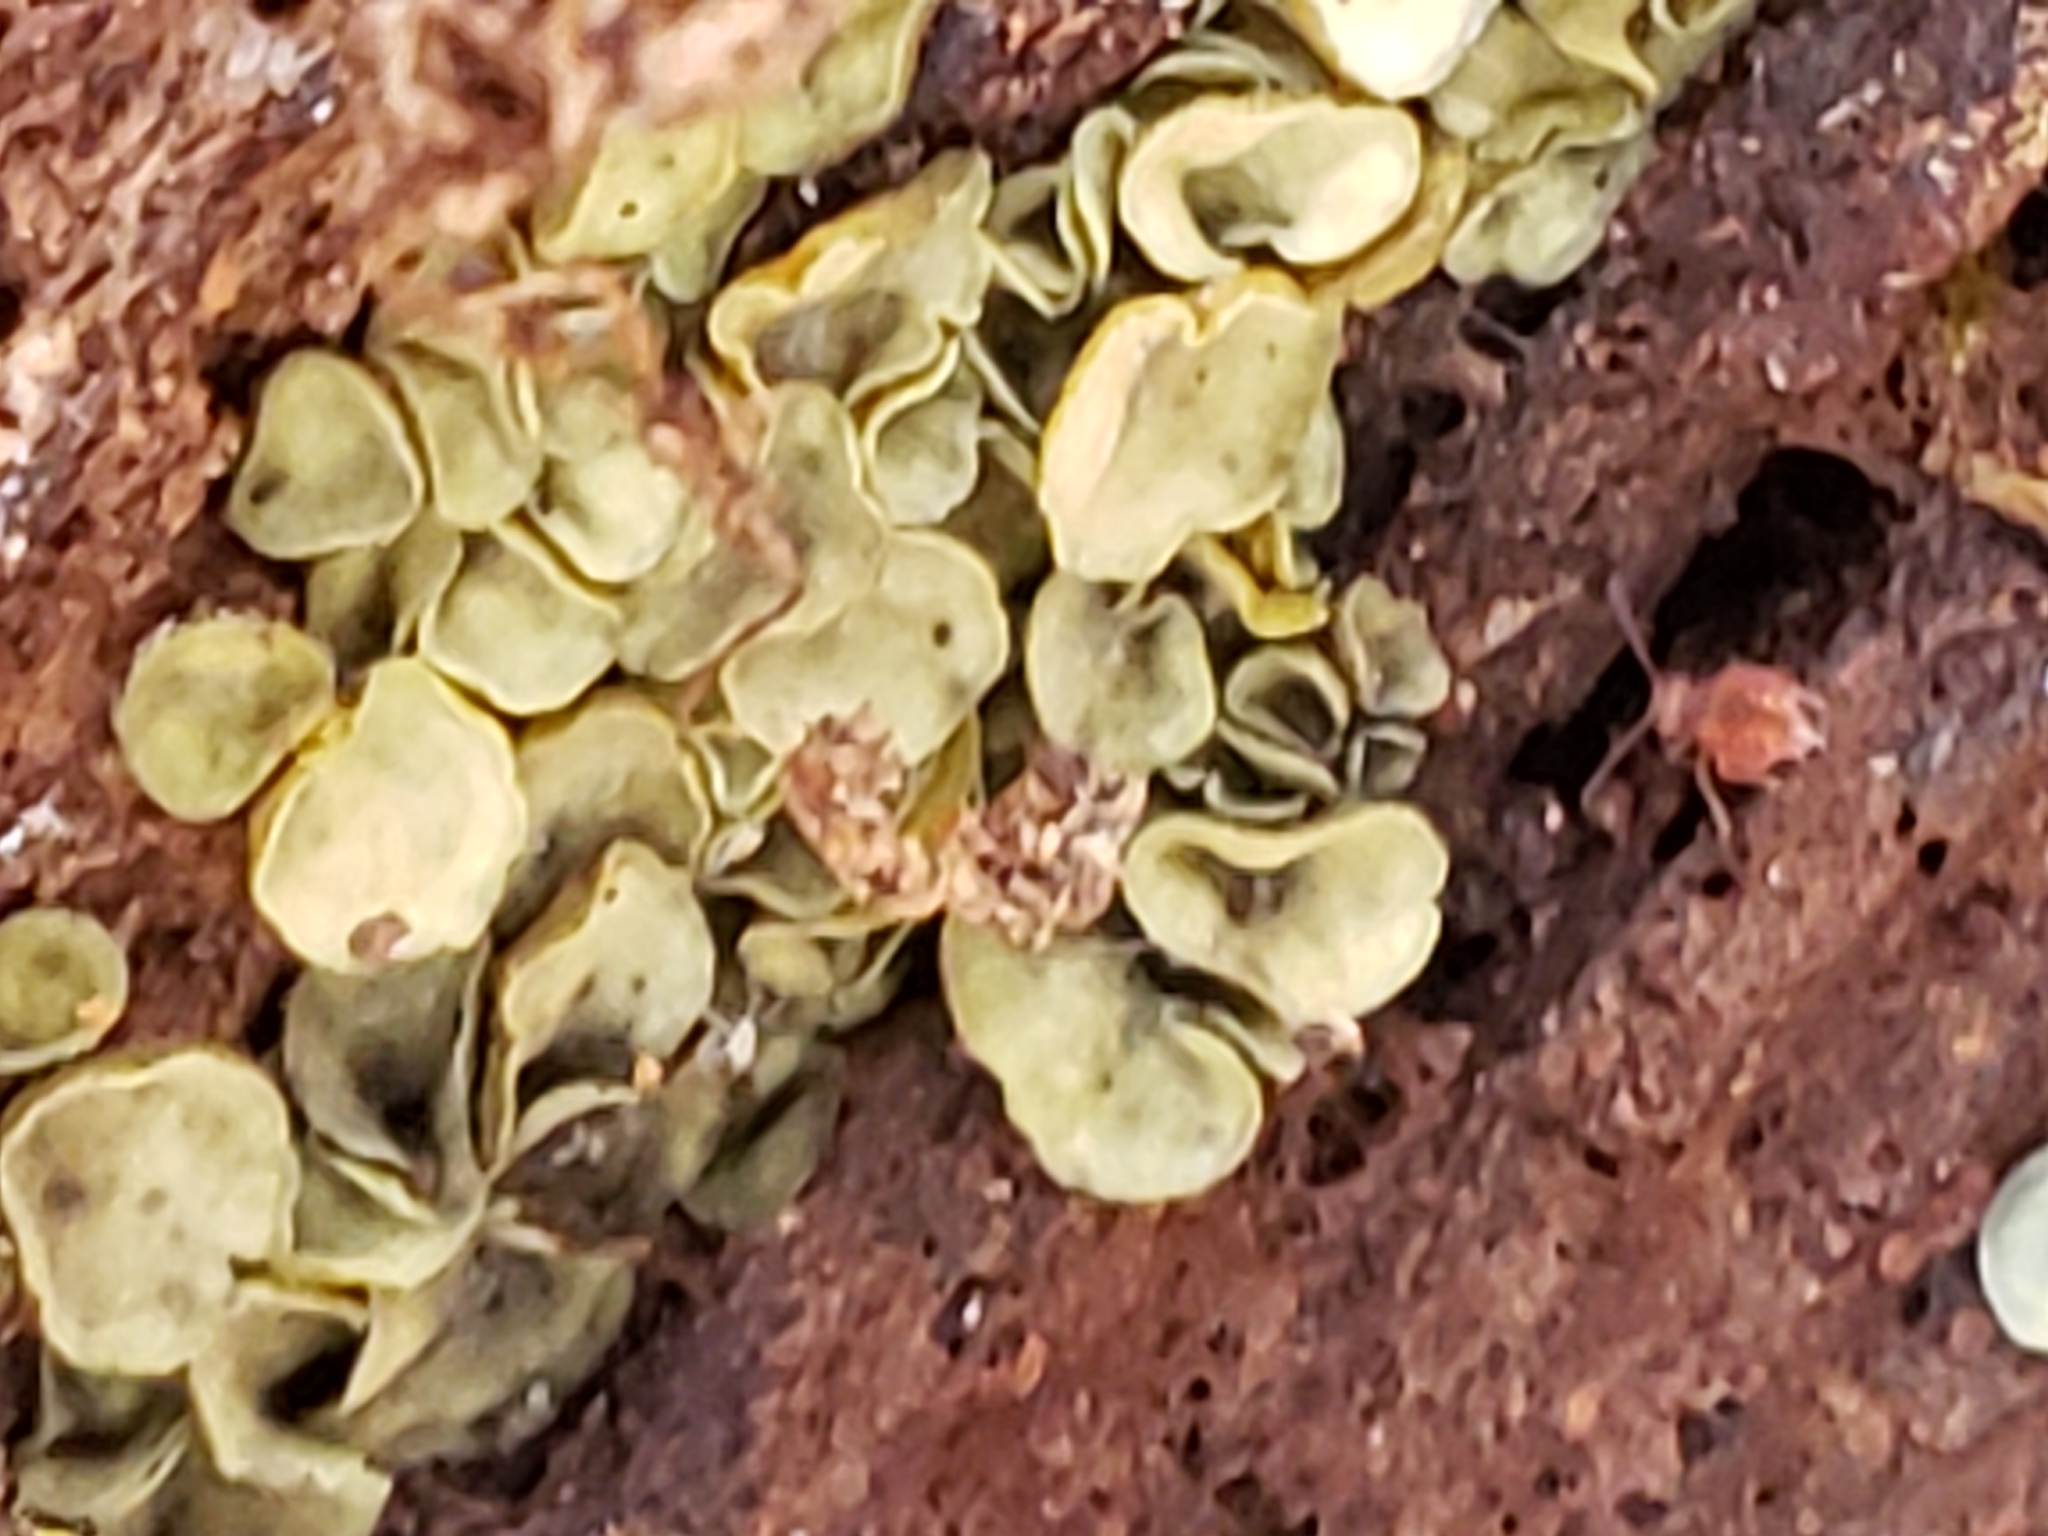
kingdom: Fungi
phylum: Ascomycota
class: Leotiomycetes
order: Helotiales
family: Chlorospleniaceae
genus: Chlorosplenium
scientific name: Chlorosplenium chlora
